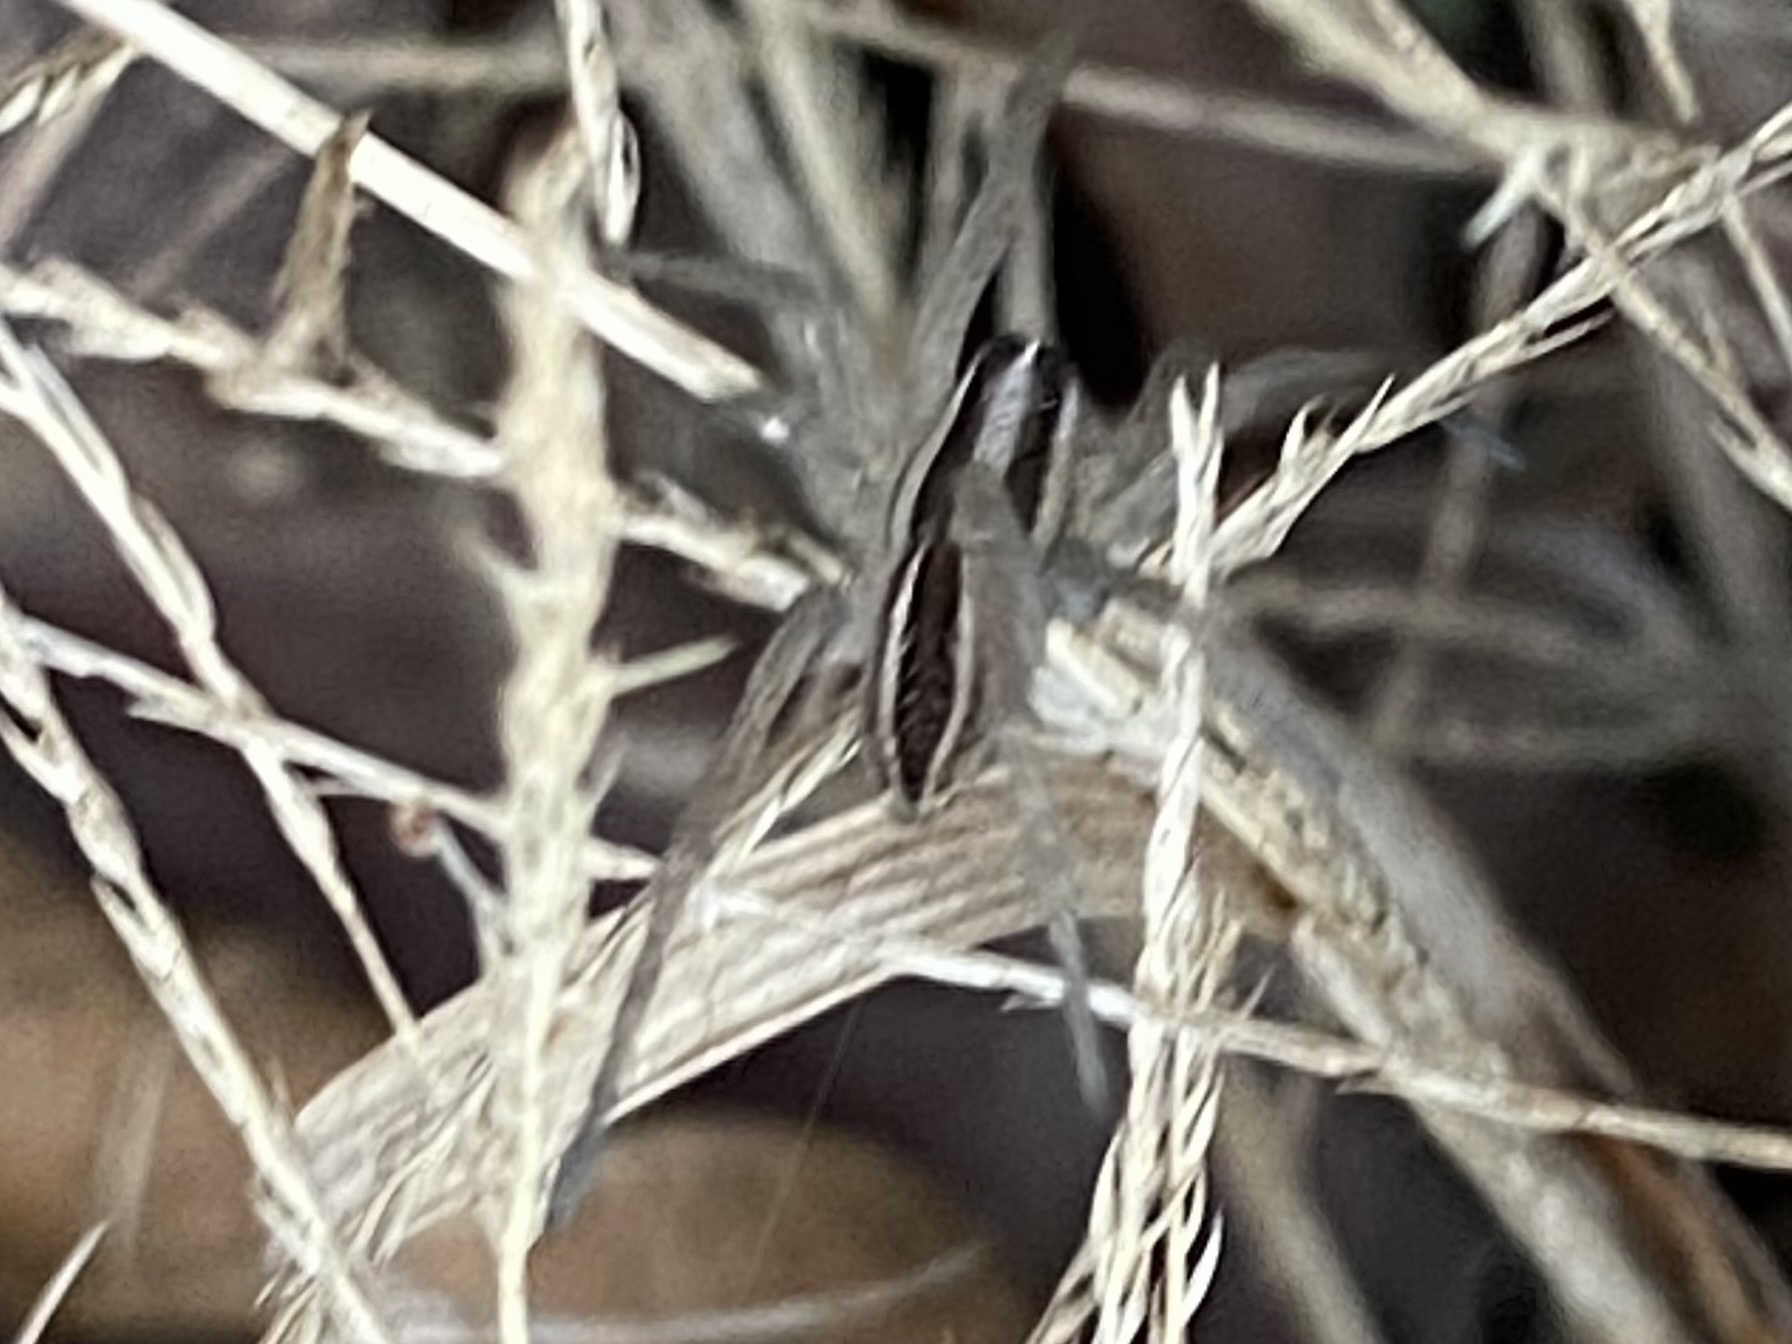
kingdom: Animalia
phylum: Arthropoda
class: Arachnida
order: Araneae
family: Lycosidae
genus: Rabidosa
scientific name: Rabidosa rabida
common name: Rabid wolf spider
